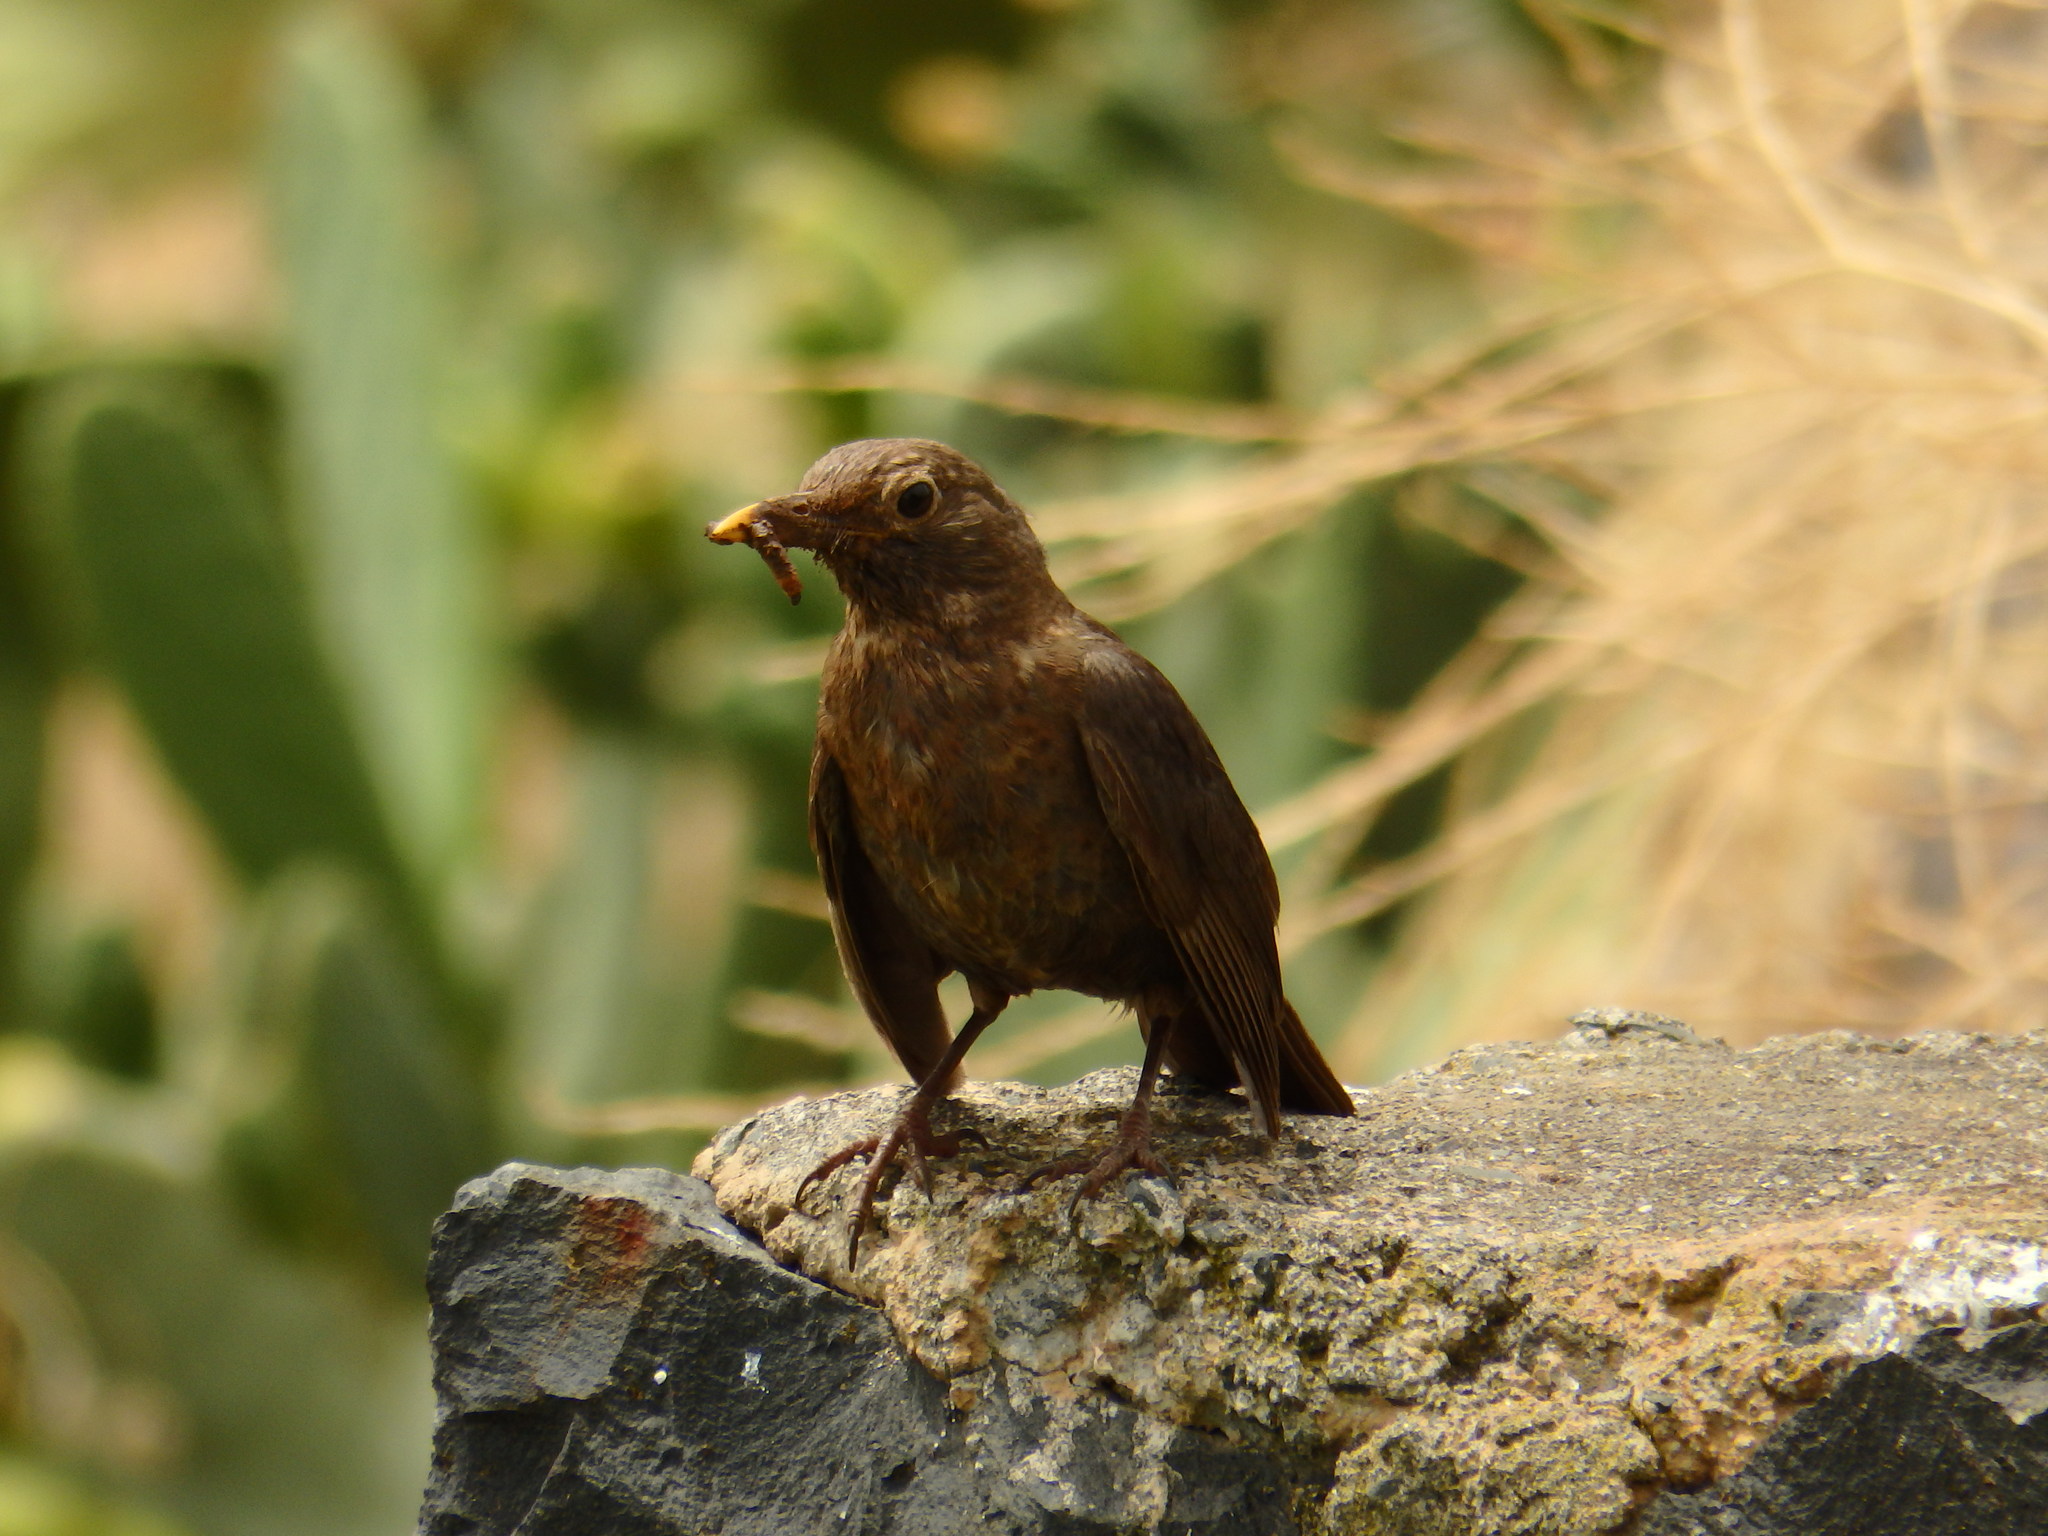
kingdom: Animalia
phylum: Chordata
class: Aves
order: Passeriformes
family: Turdidae
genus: Turdus
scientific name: Turdus merula
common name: Common blackbird
